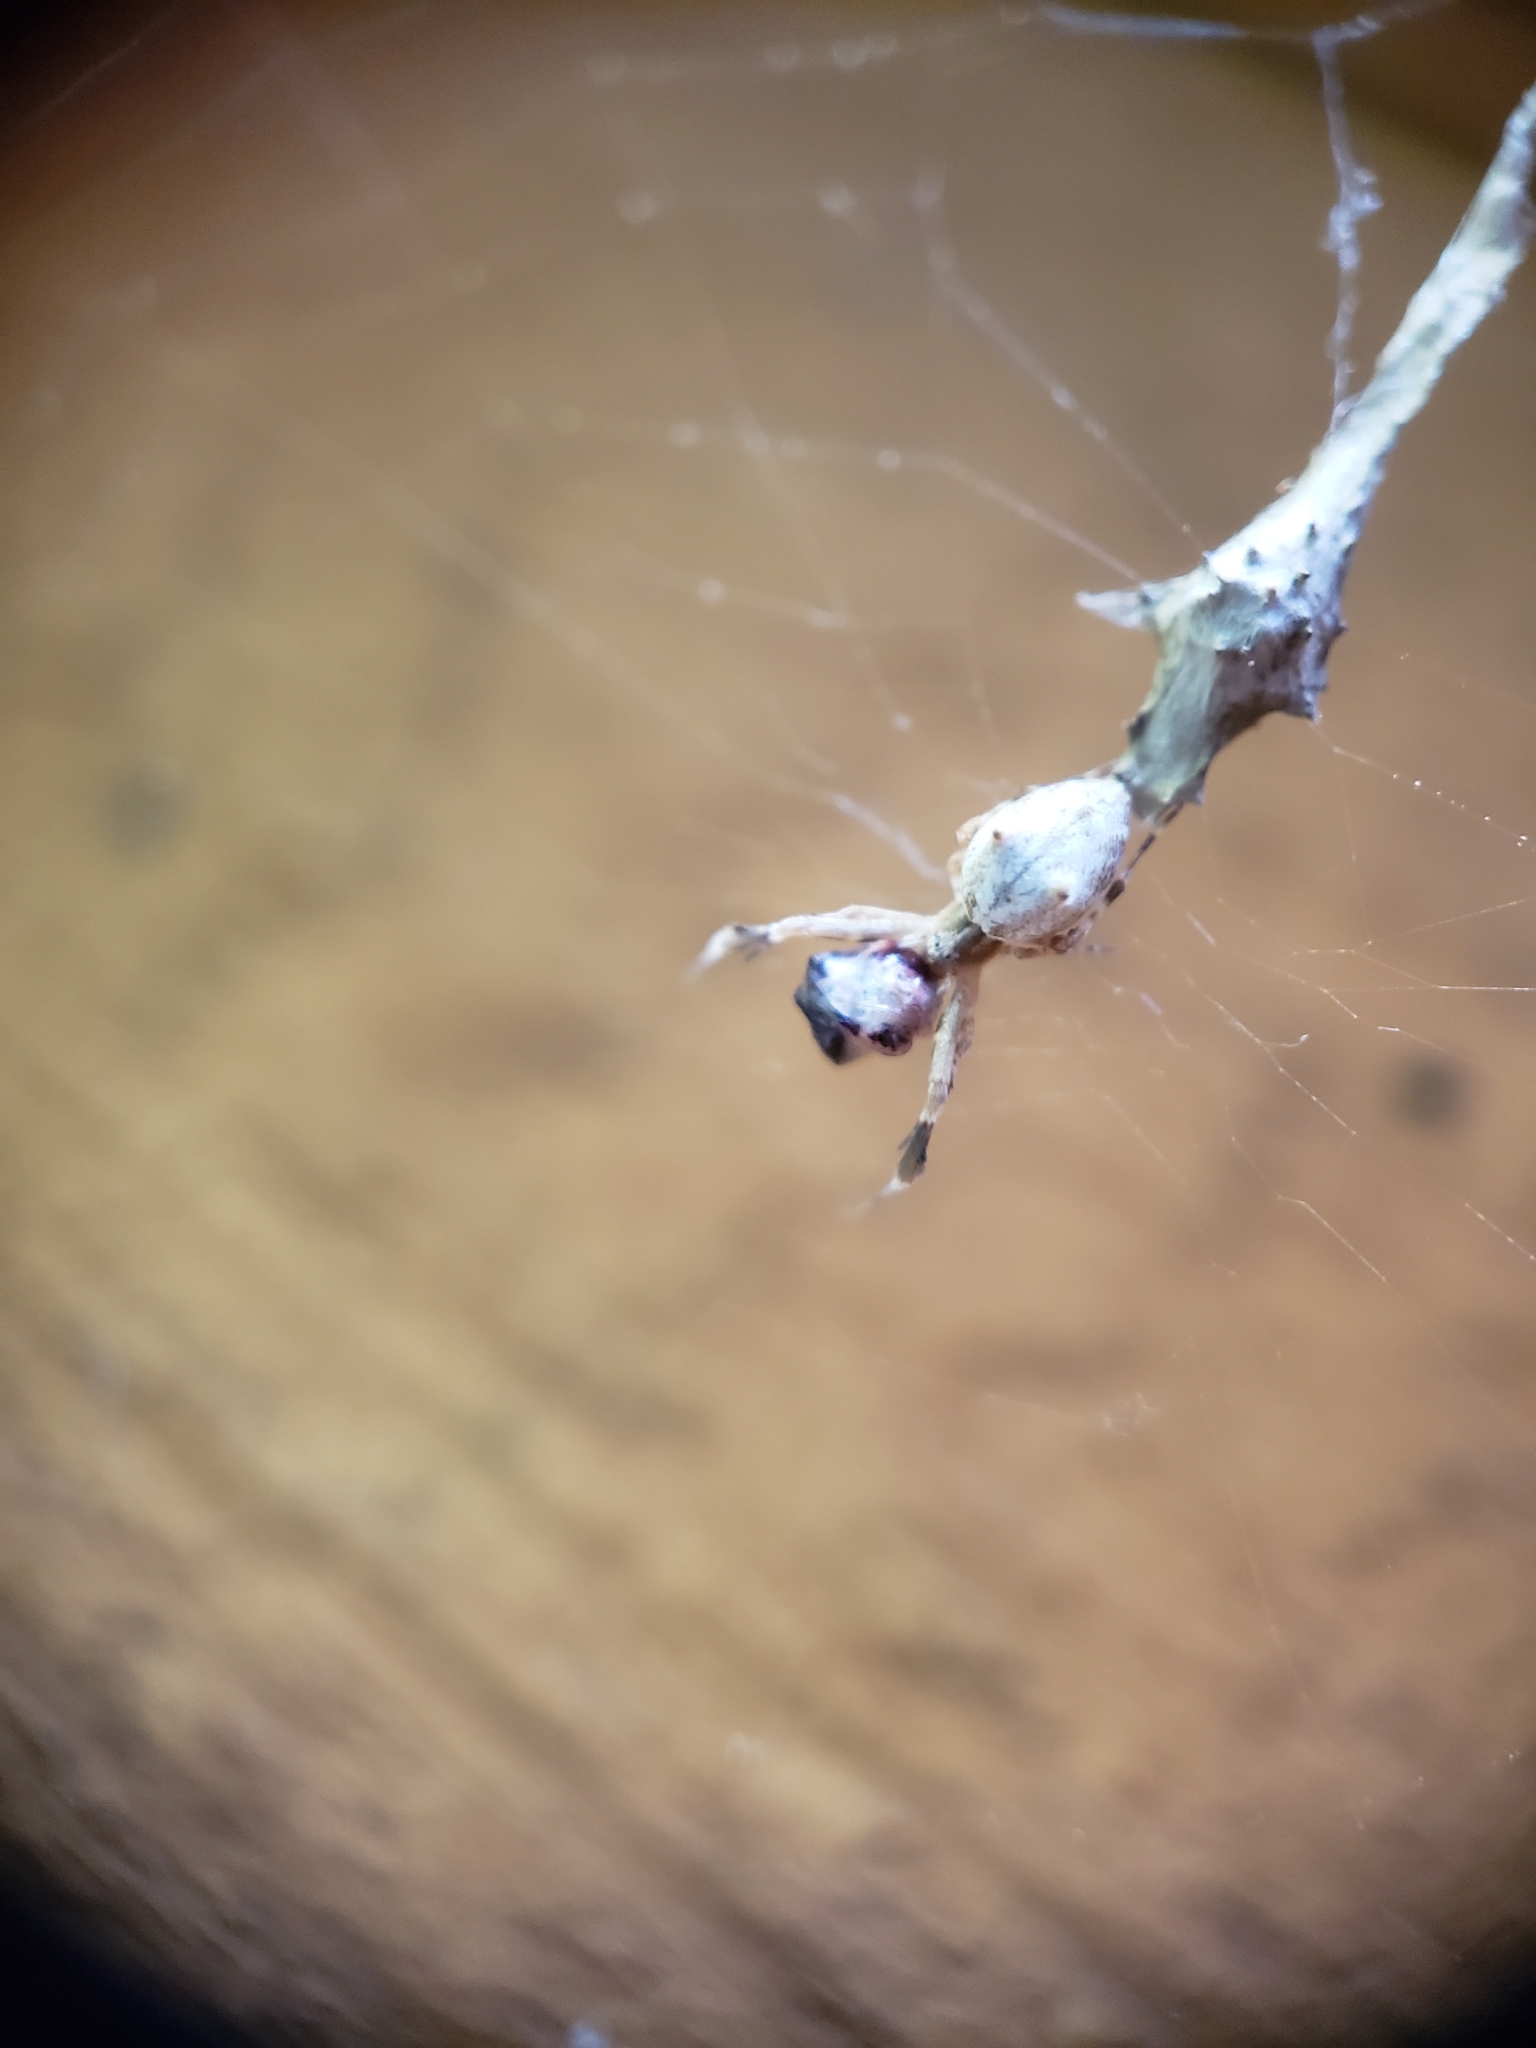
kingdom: Animalia
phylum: Arthropoda
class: Arachnida
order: Araneae
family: Uloboridae
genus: Uloborus
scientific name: Uloborus glomosus
